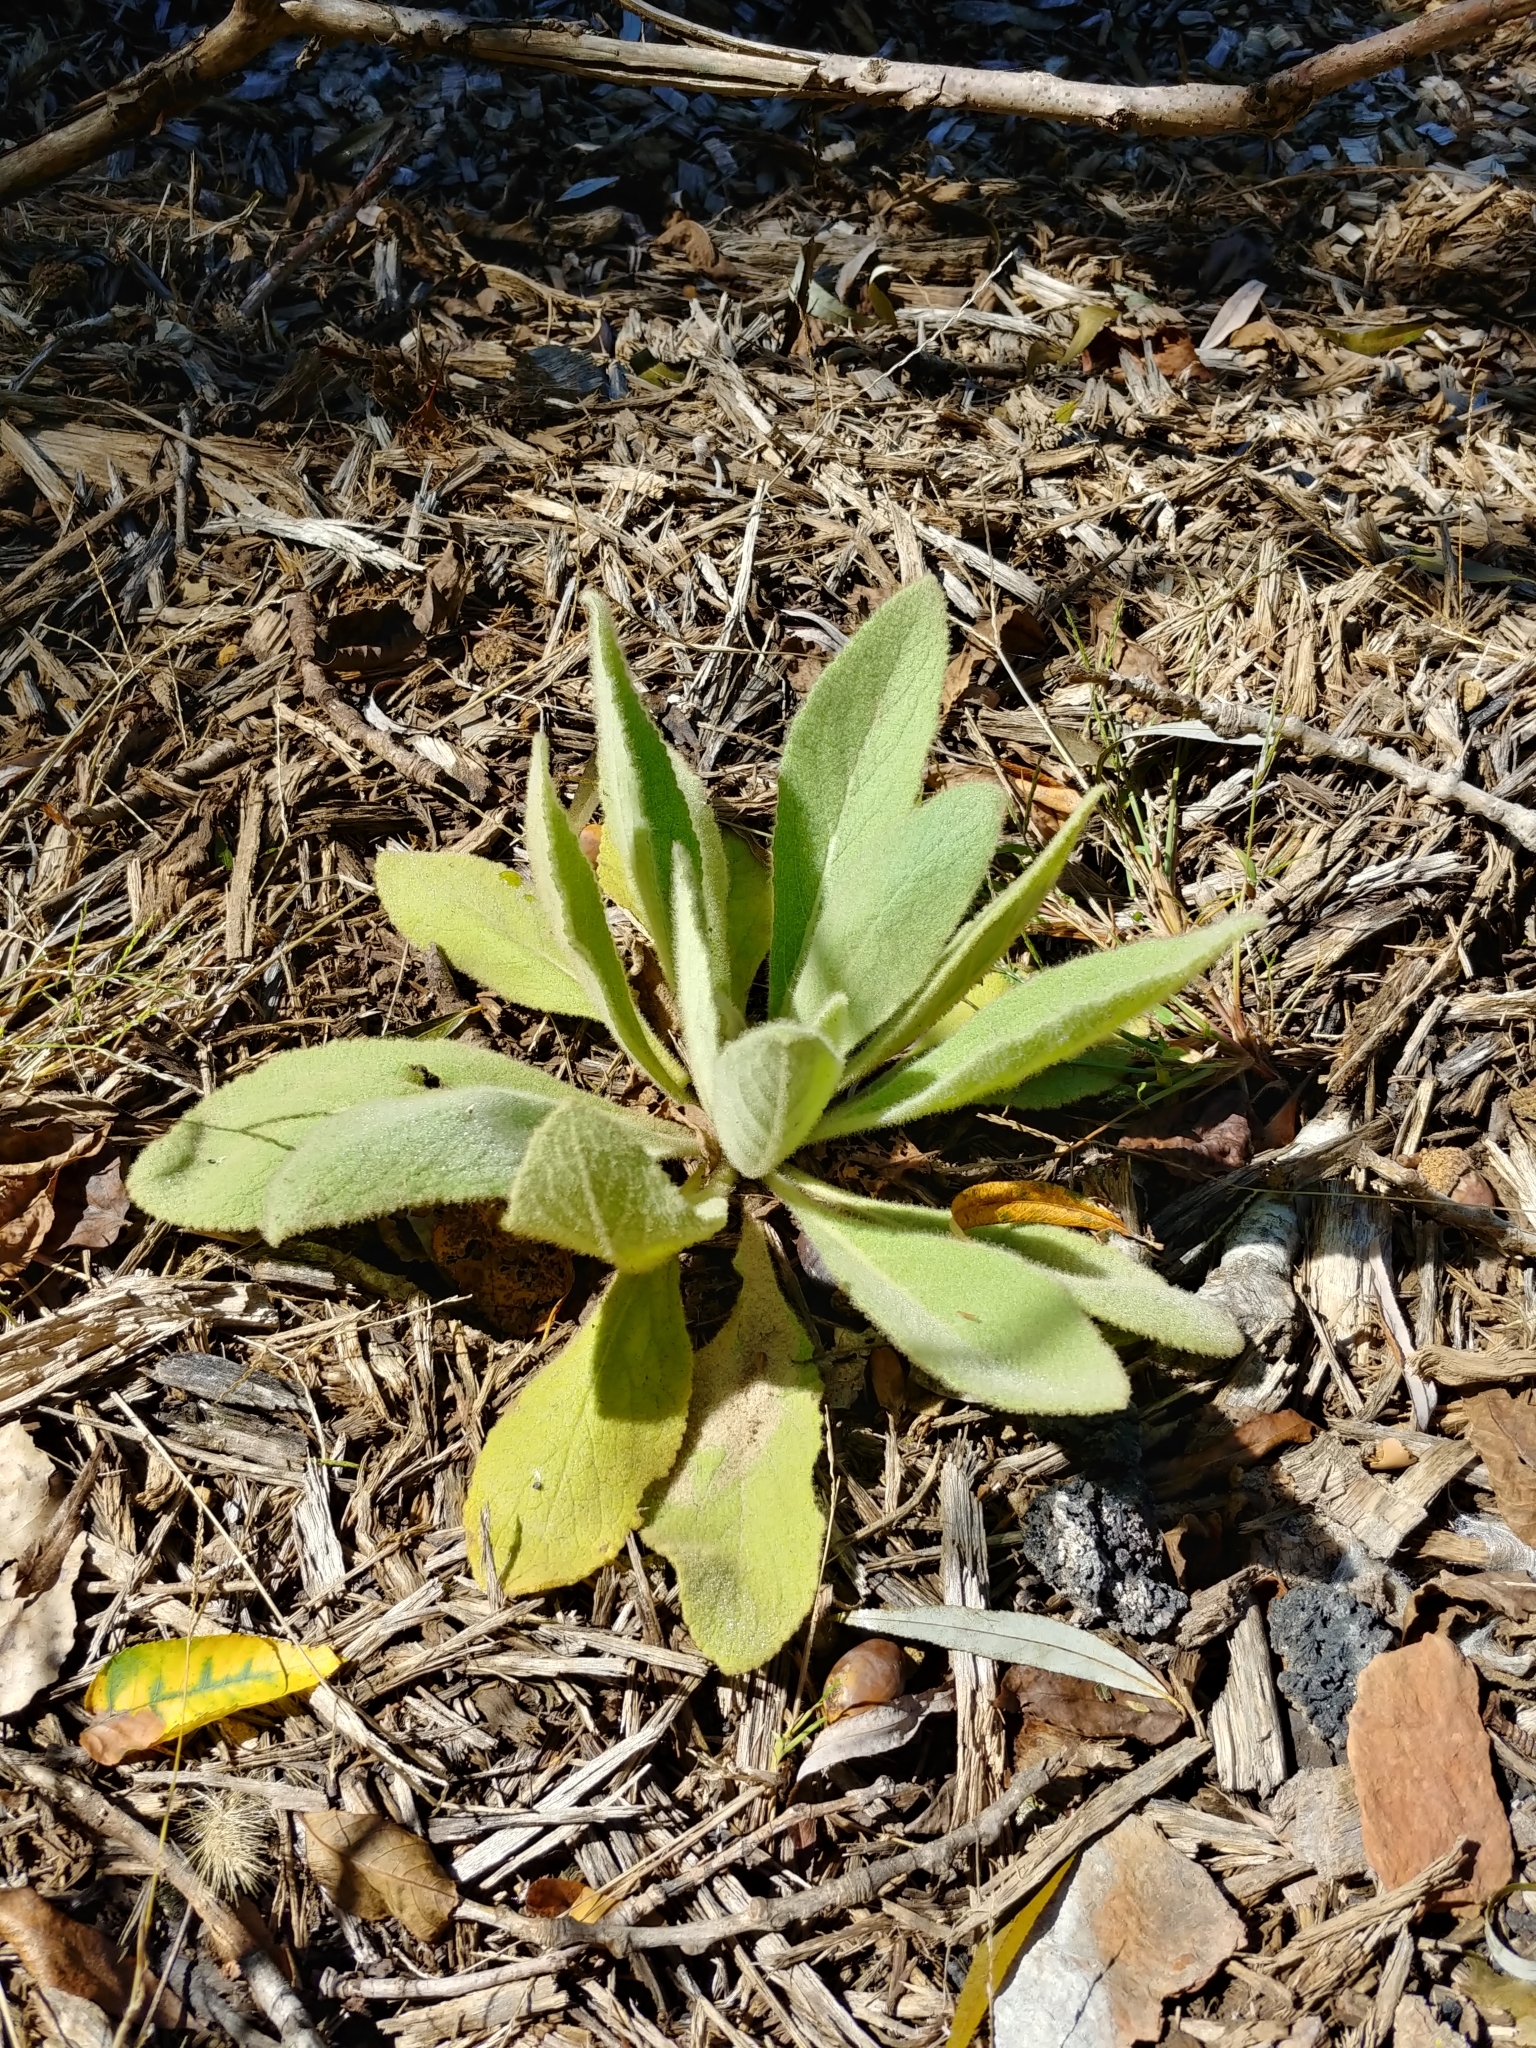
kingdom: Plantae
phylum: Tracheophyta
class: Magnoliopsida
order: Lamiales
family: Scrophulariaceae
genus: Verbascum
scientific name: Verbascum thapsus
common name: Common mullein
